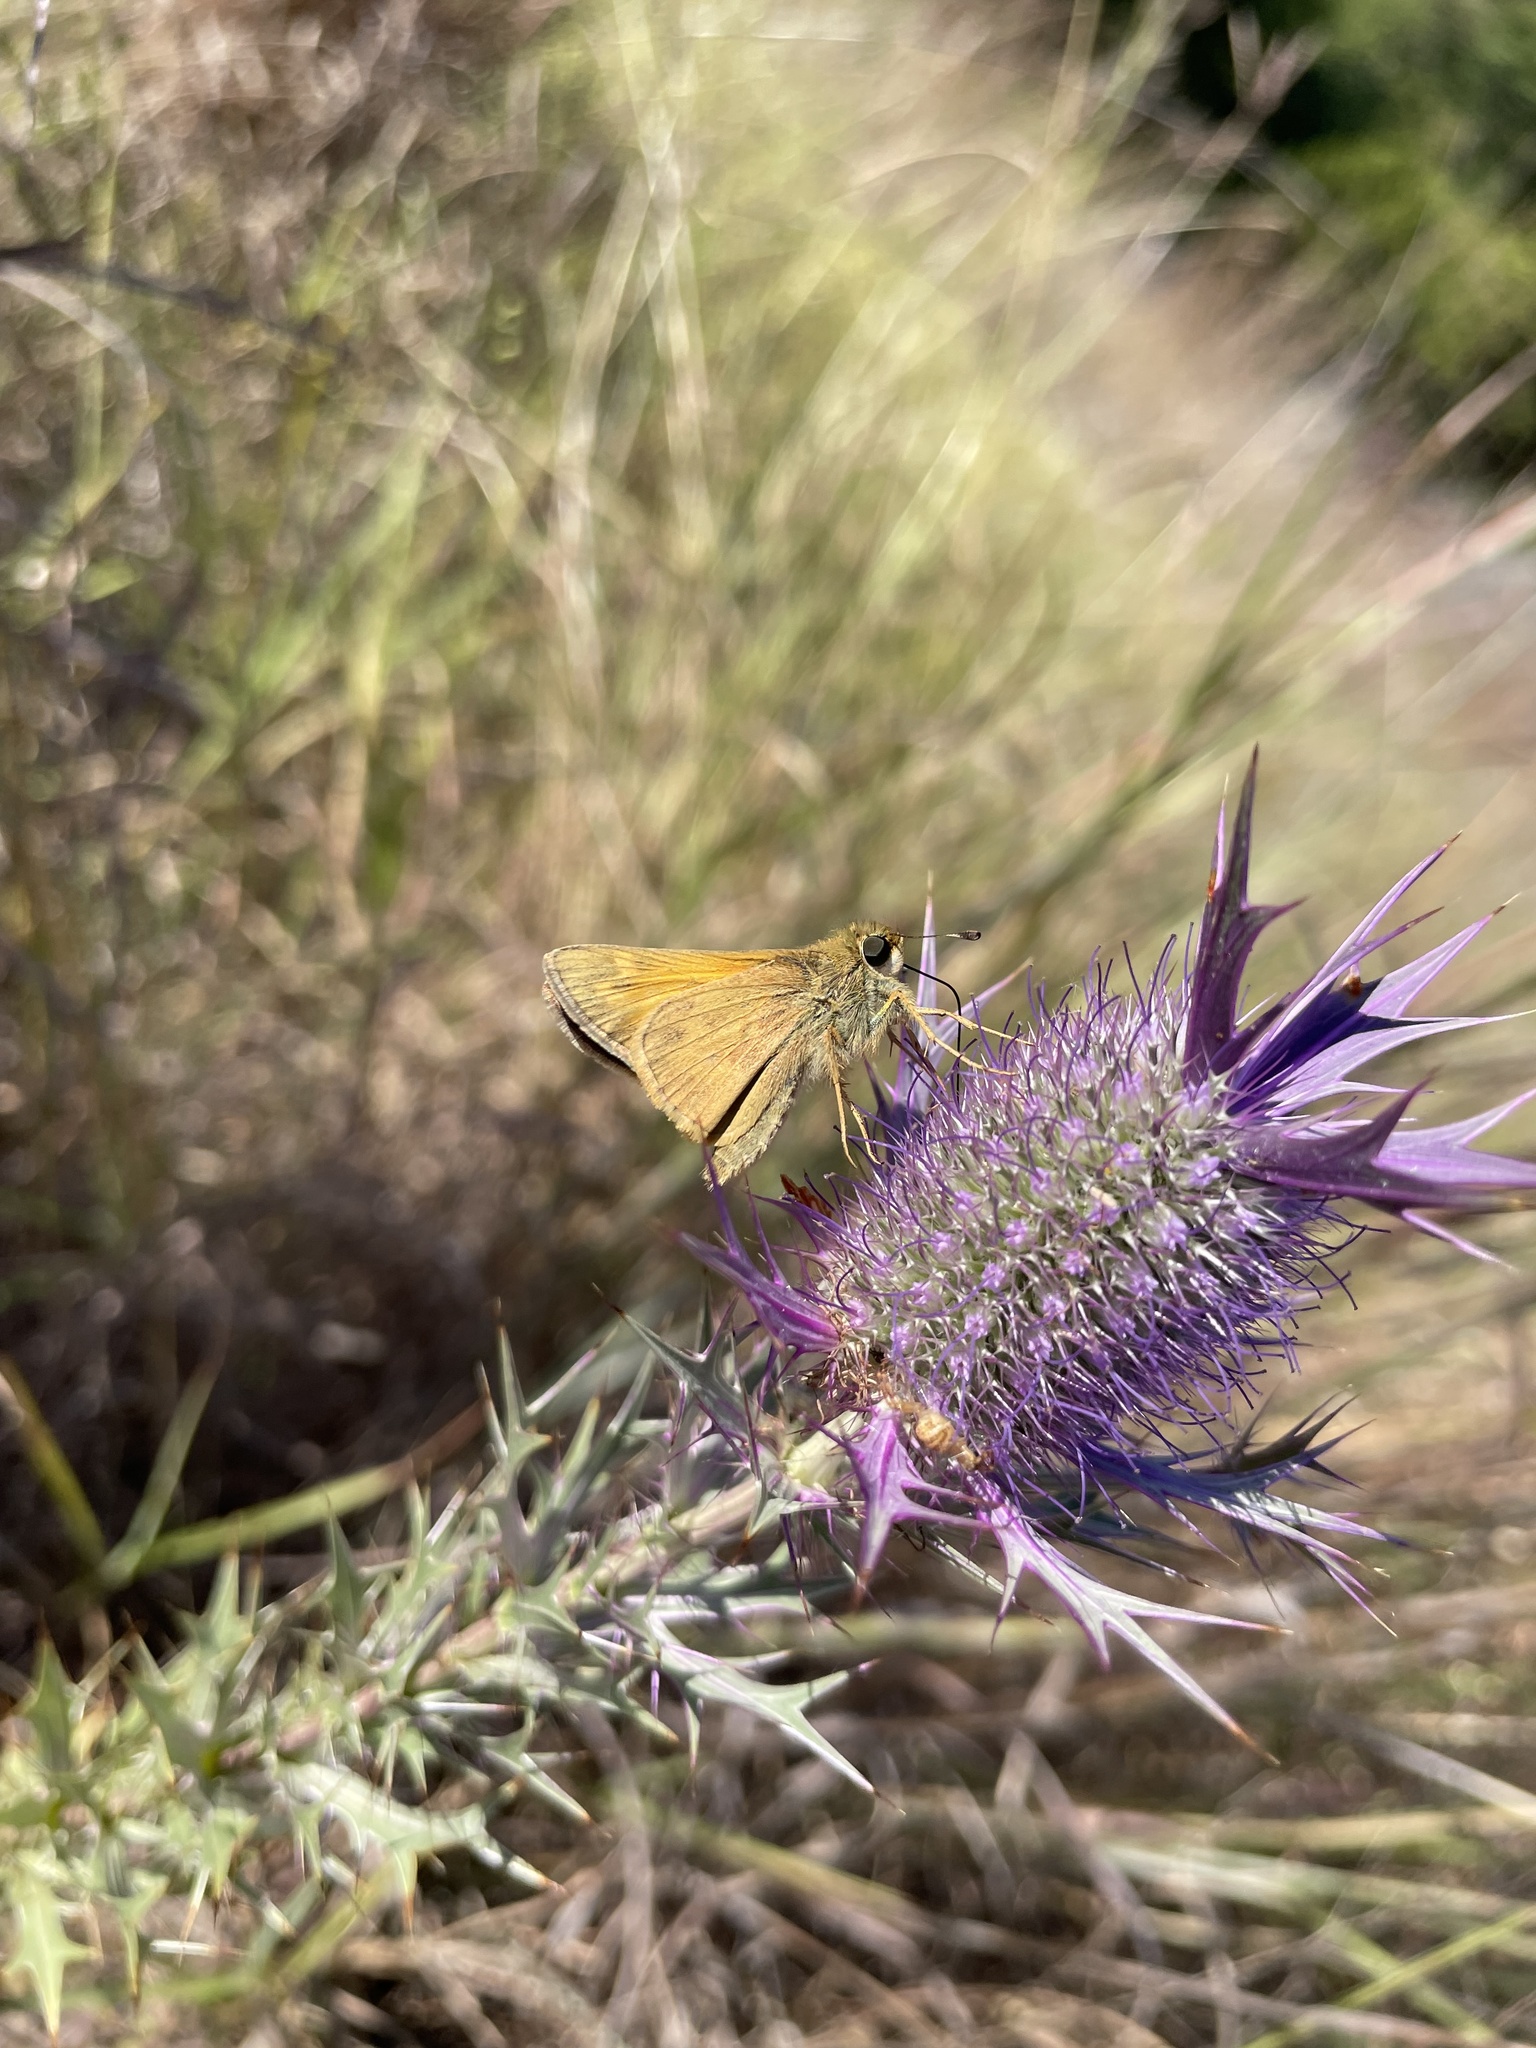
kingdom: Animalia
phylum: Arthropoda
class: Insecta
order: Lepidoptera
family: Hesperiidae
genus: Atalopedes
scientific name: Atalopedes
